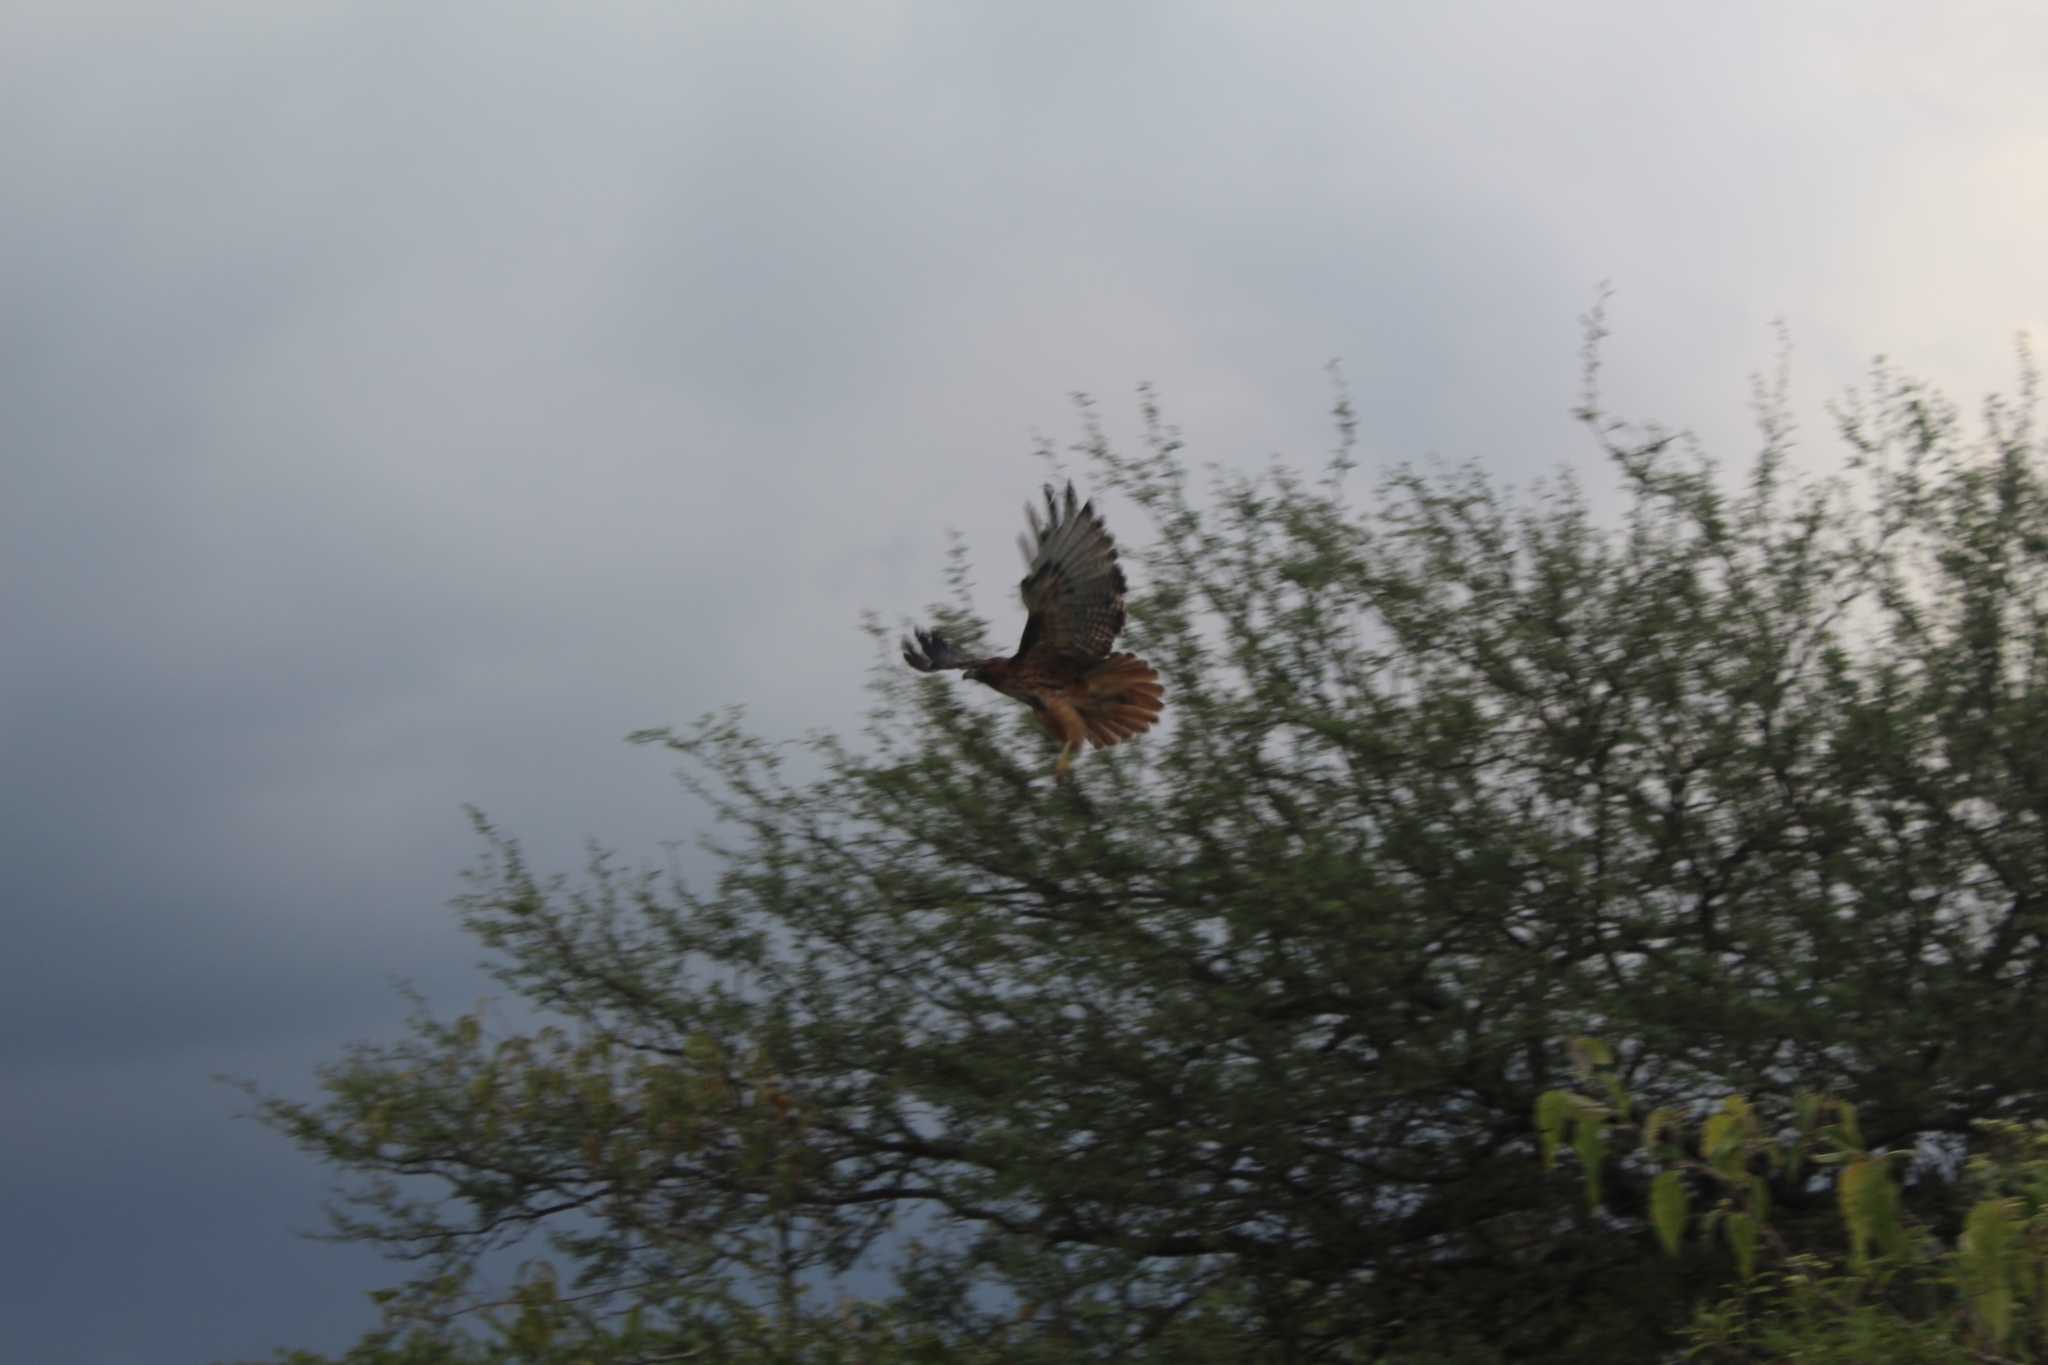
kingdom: Animalia
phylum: Chordata
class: Aves
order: Accipitriformes
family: Accipitridae
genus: Buteo
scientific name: Buteo jamaicensis
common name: Red-tailed hawk
